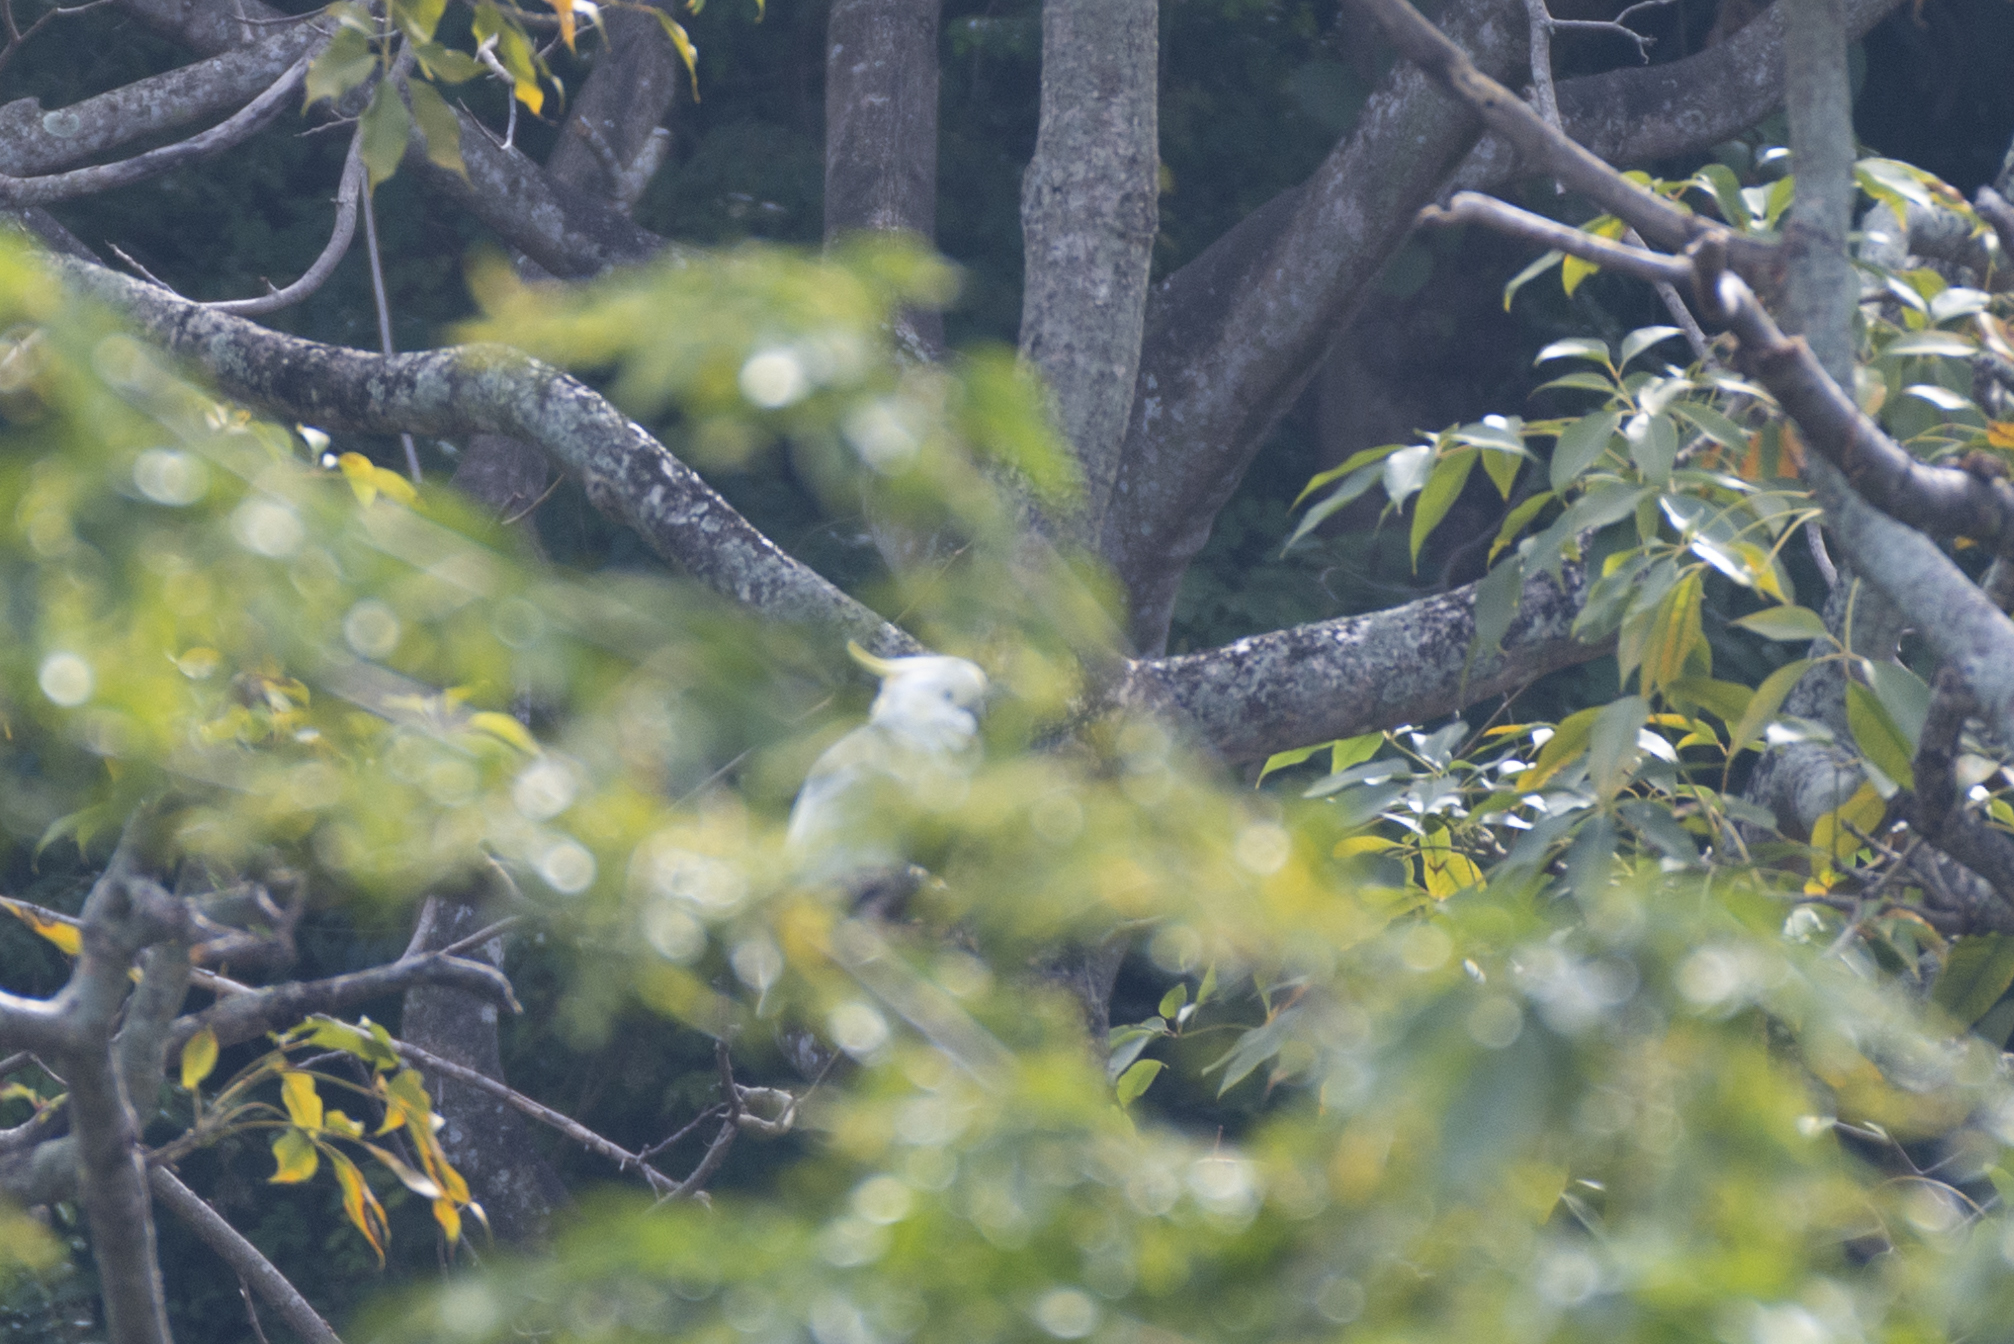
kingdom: Animalia
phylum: Chordata
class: Aves
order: Psittaciformes
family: Psittacidae
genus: Cacatua
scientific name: Cacatua sulphurea
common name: Yellow-crested cockatoo
